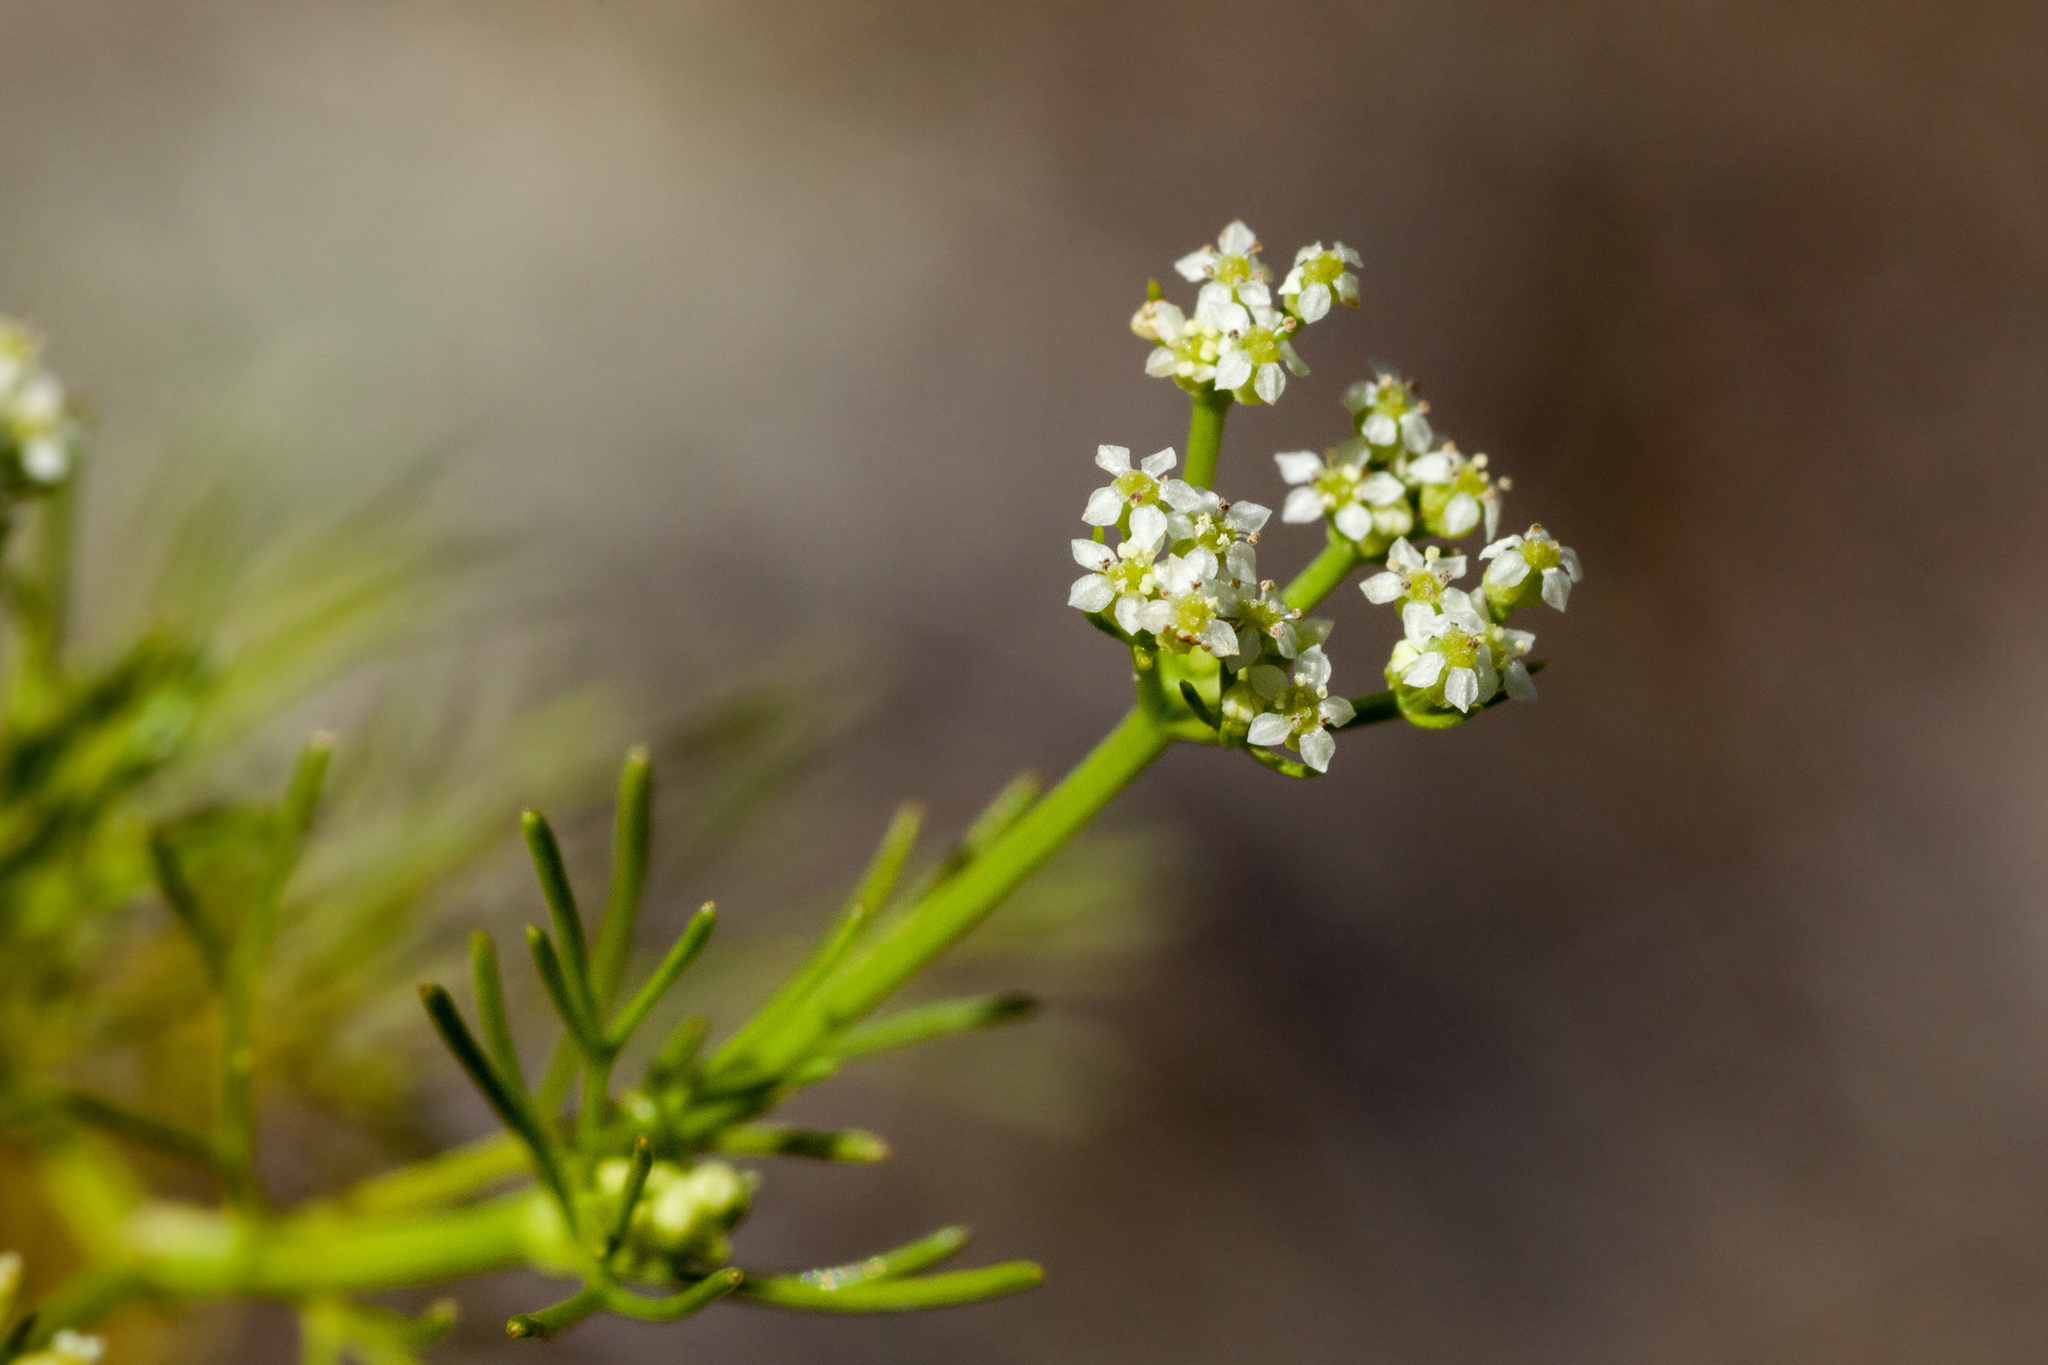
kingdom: Plantae
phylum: Tracheophyta
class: Magnoliopsida
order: Apiales
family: Apiaceae
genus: Spermolepis
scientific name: Spermolepis organensis
